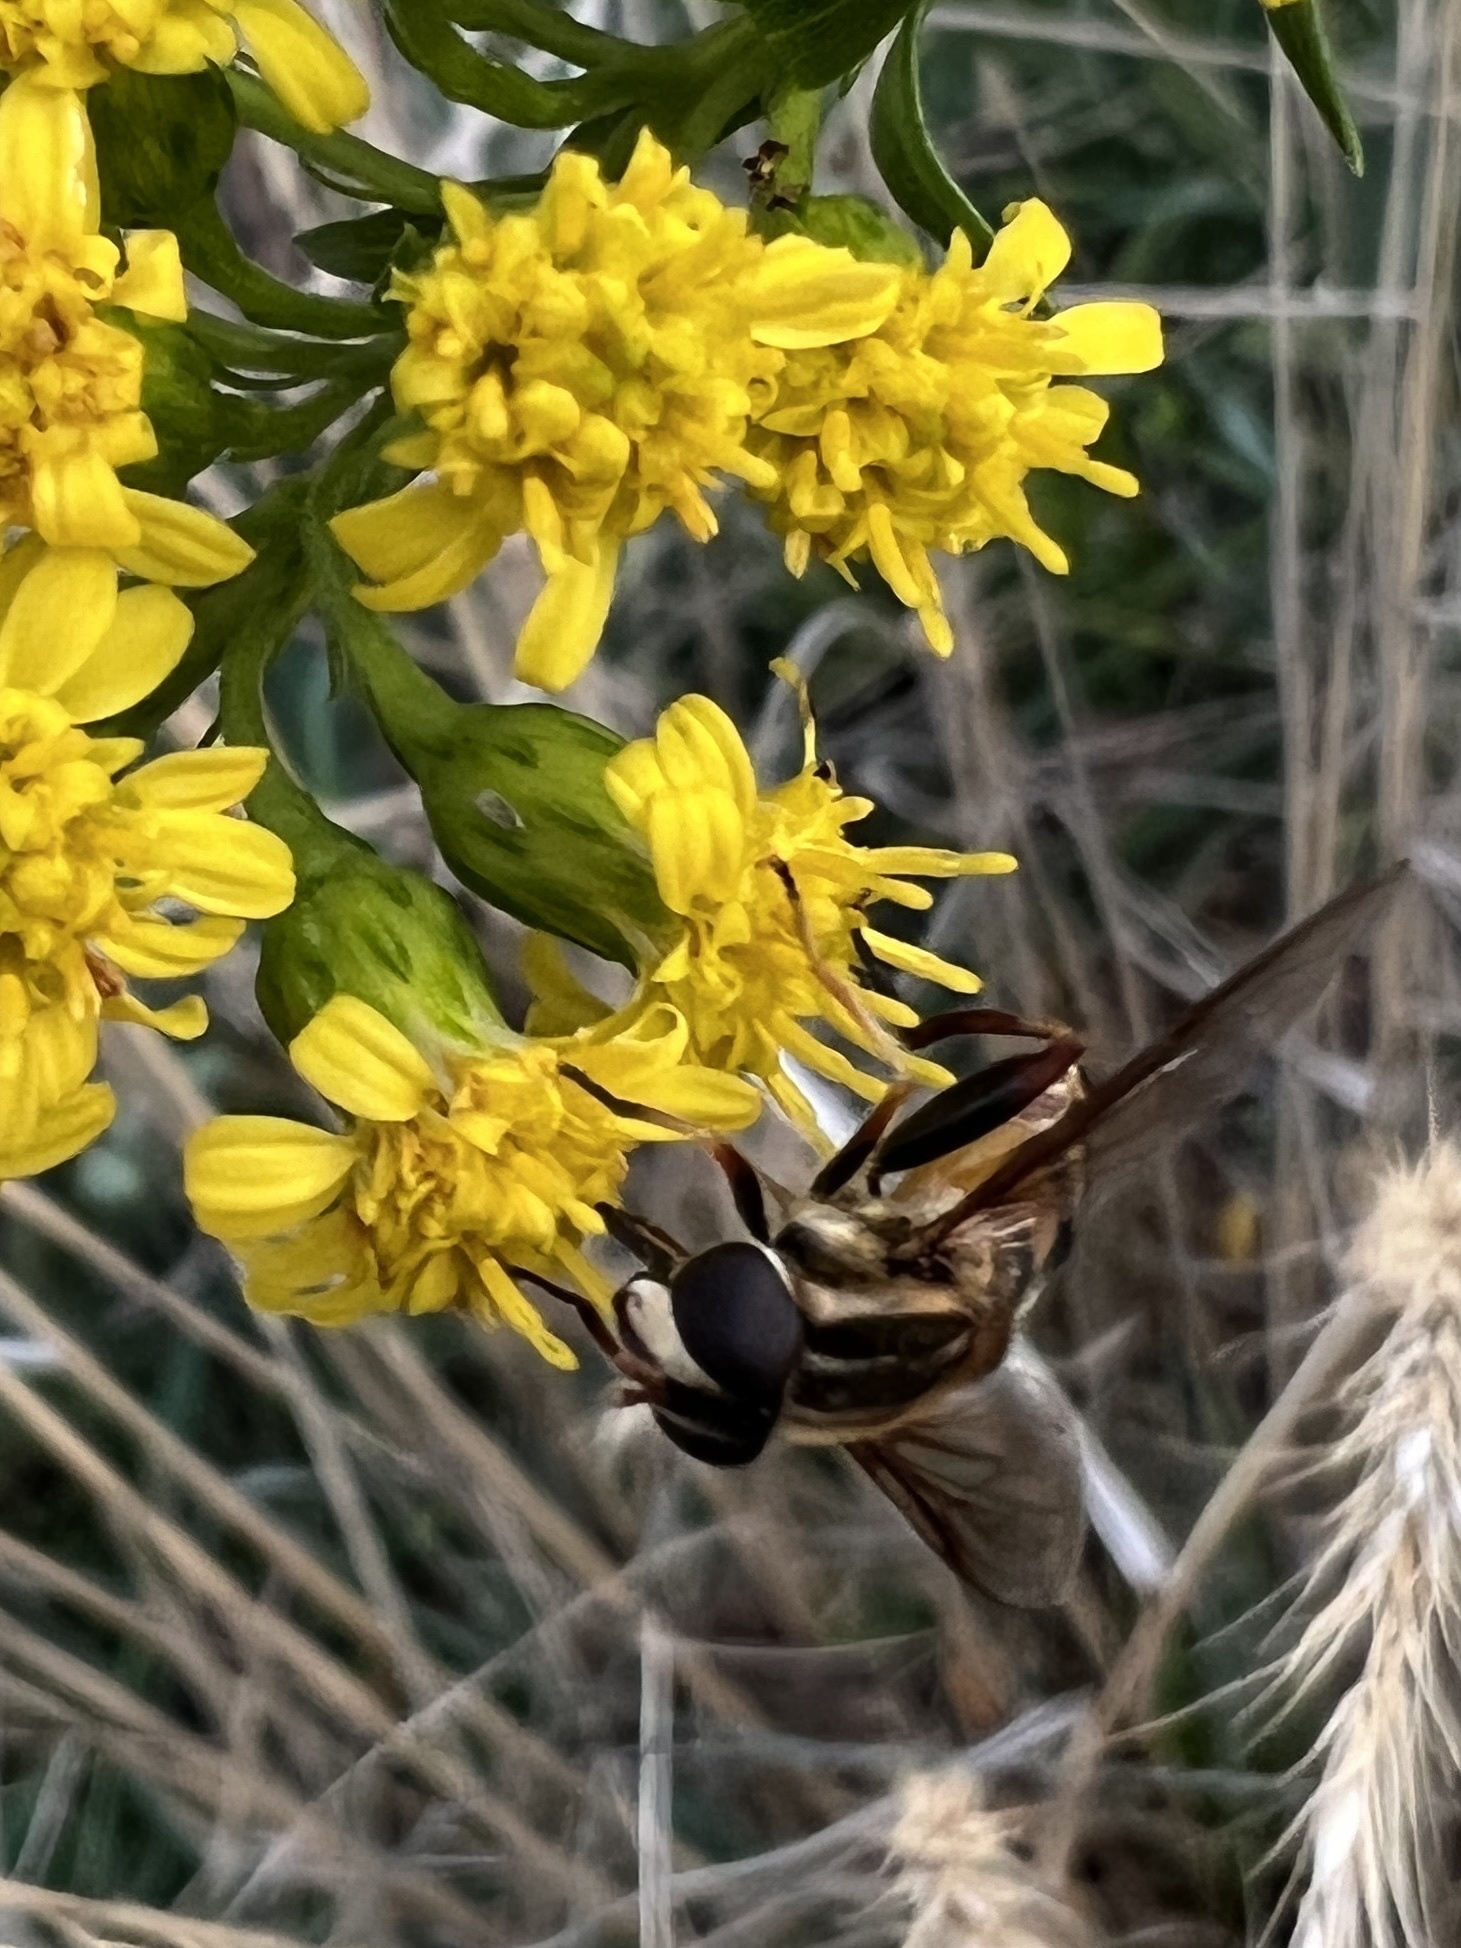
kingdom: Animalia
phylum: Arthropoda
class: Insecta
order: Diptera
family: Syrphidae
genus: Helophilus
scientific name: Helophilus fasciatus
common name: Narrow-headed marsh fly
